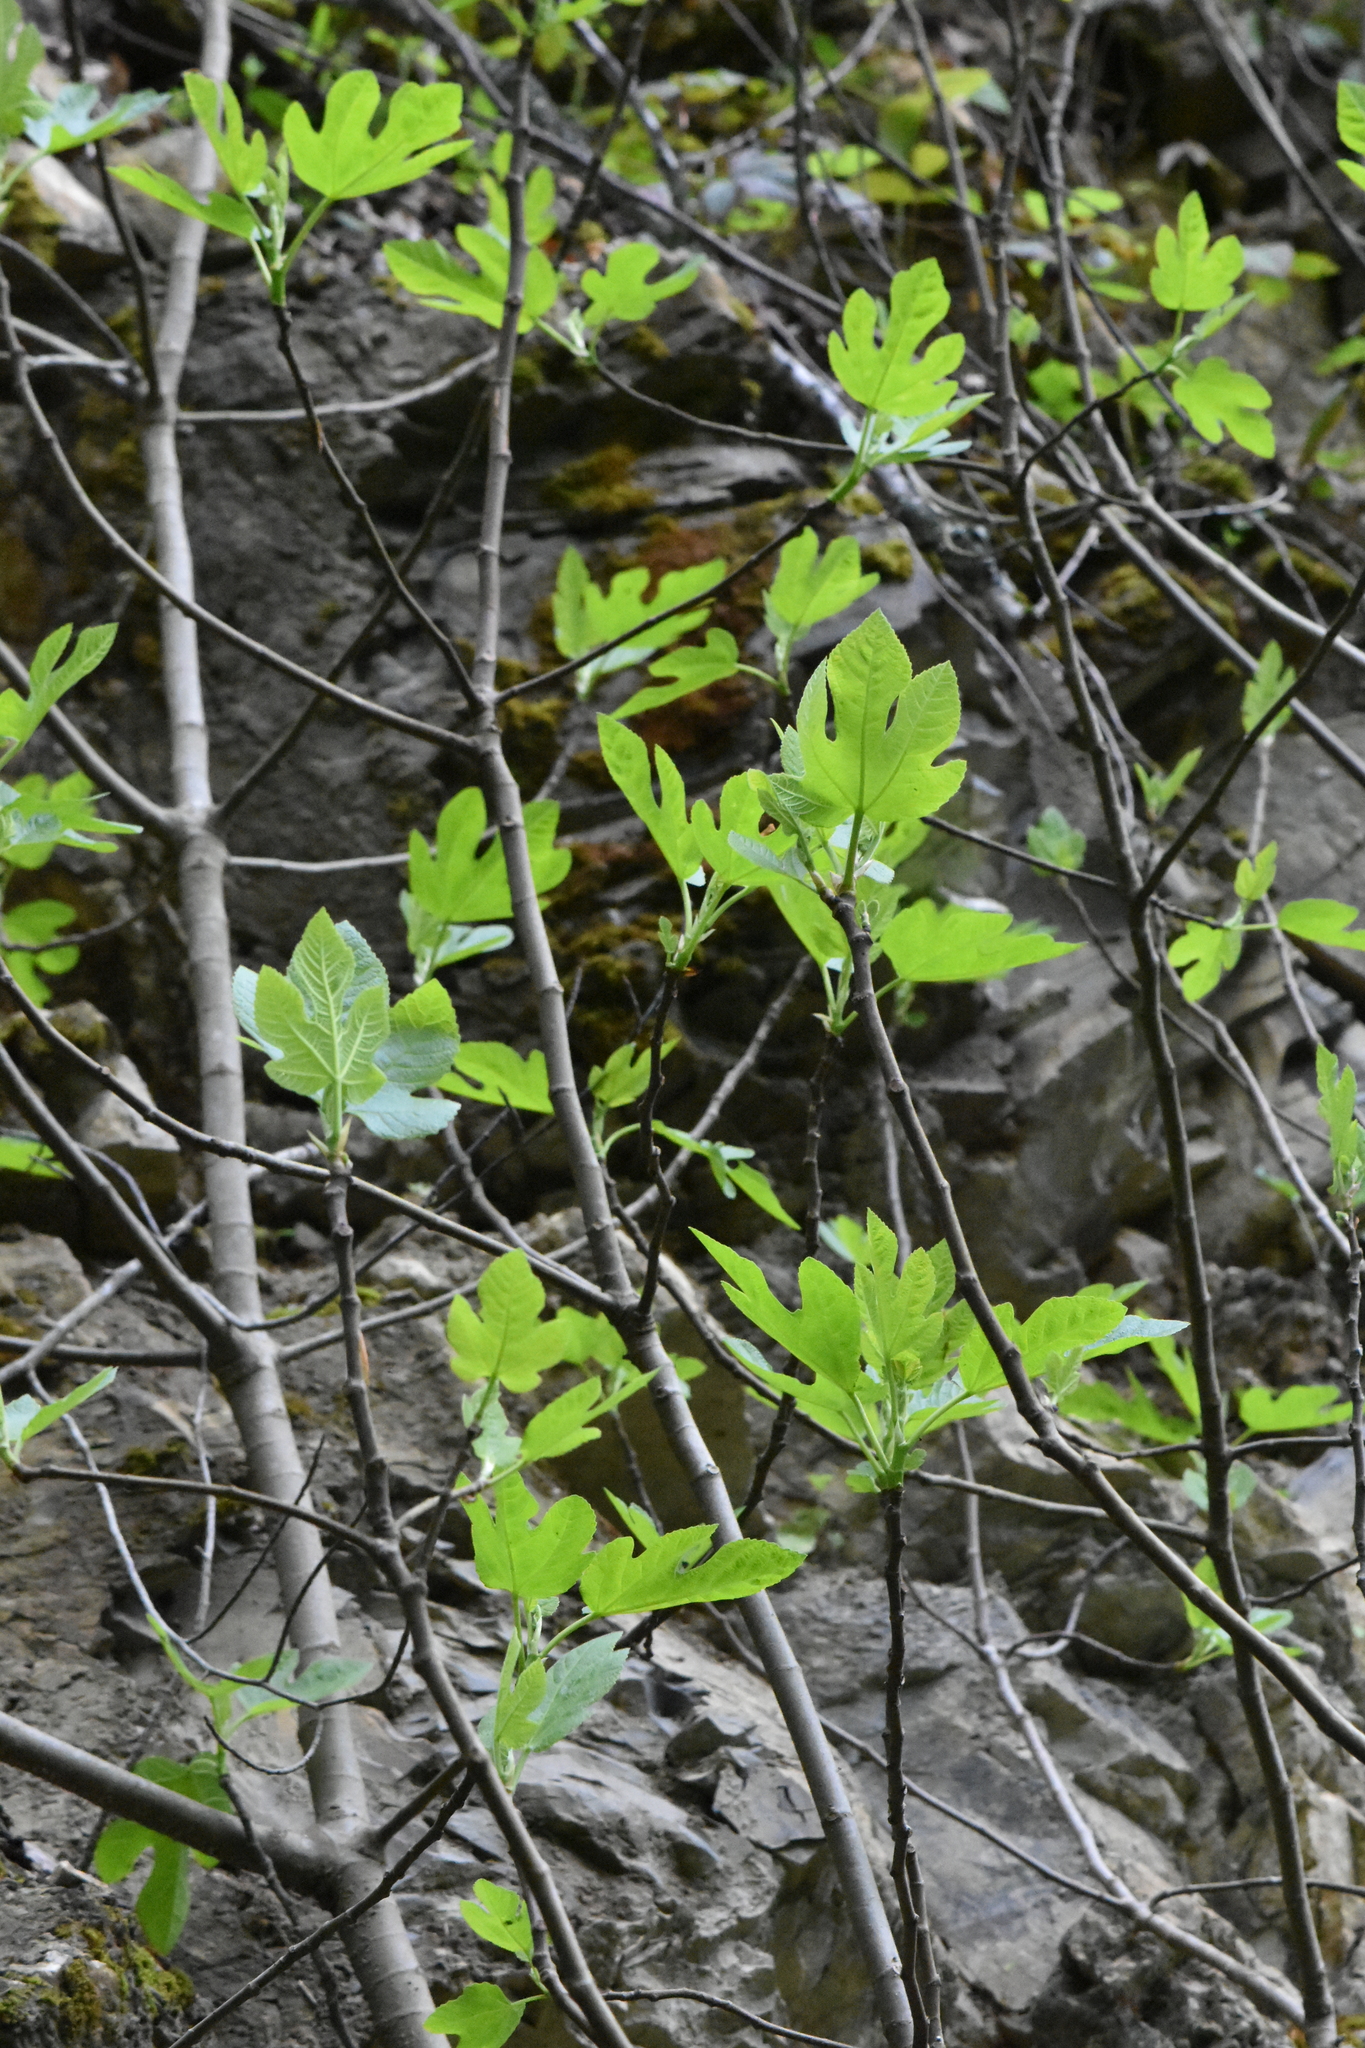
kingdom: Plantae
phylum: Tracheophyta
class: Magnoliopsida
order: Rosales
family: Moraceae
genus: Ficus
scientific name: Ficus carica
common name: Fig
